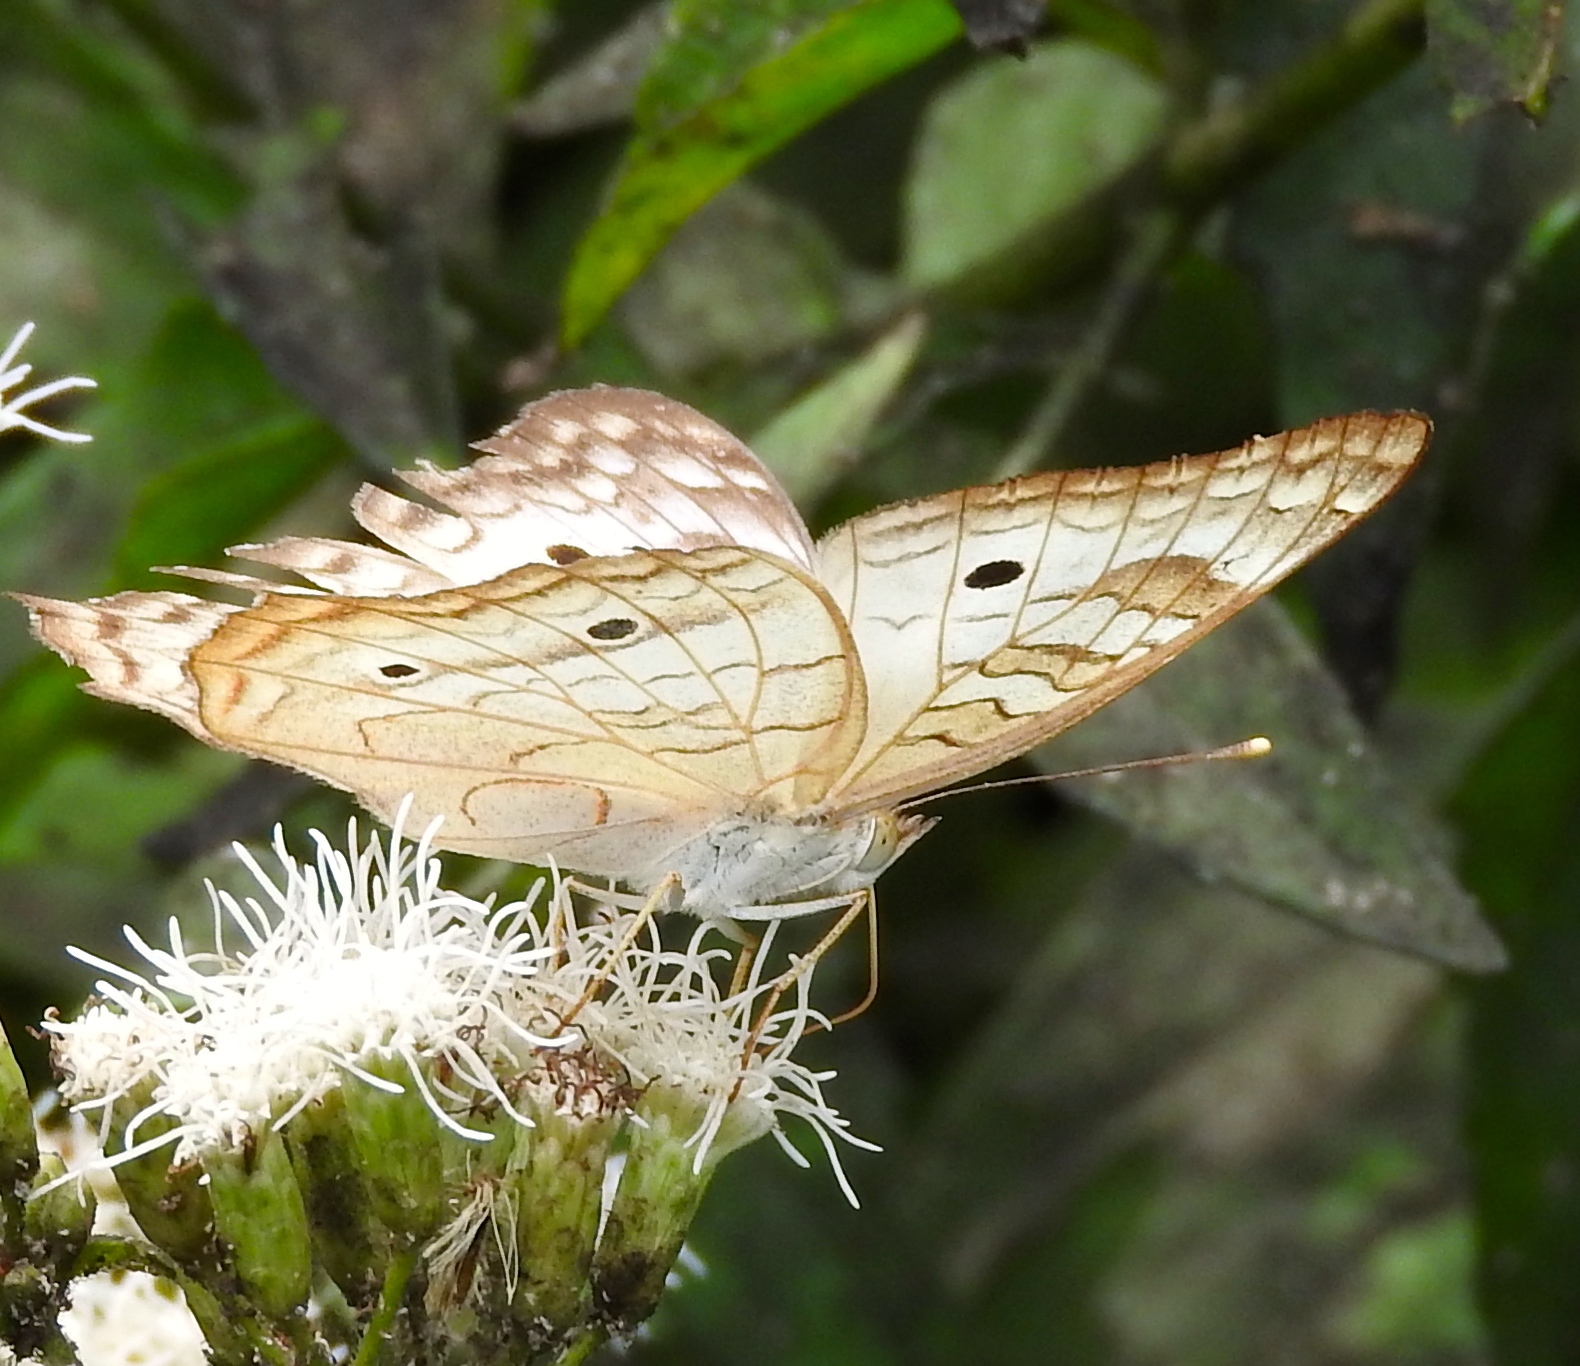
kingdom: Animalia
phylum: Arthropoda
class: Insecta
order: Lepidoptera
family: Nymphalidae
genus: Anartia
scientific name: Anartia jatrophae
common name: White peacock
